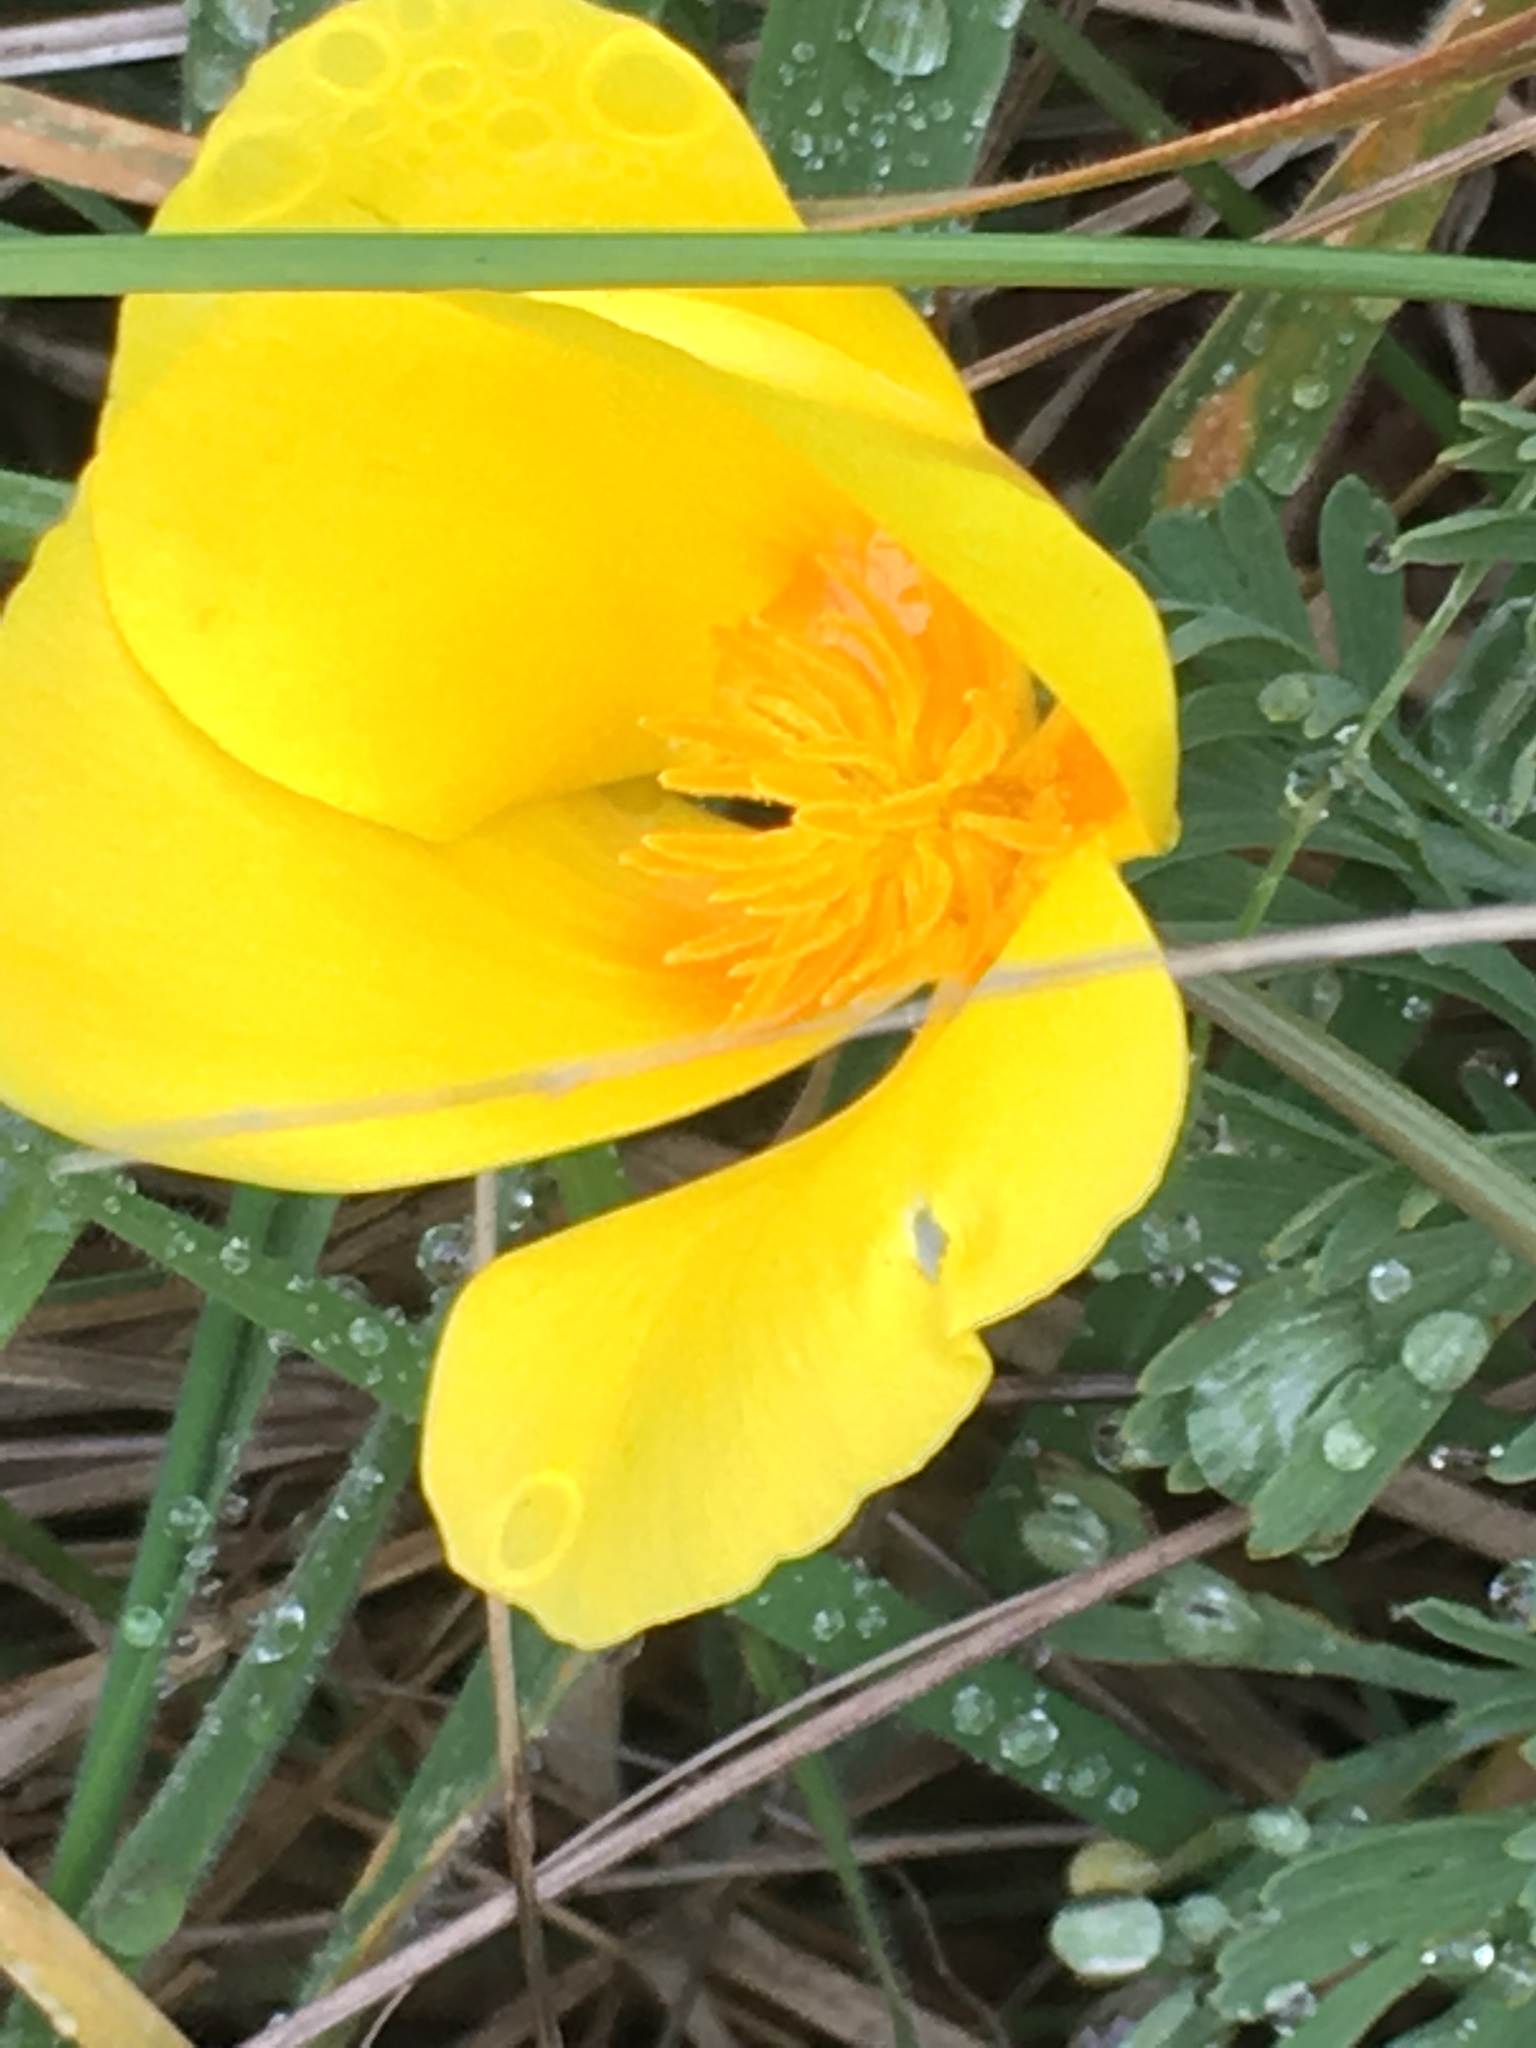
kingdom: Plantae
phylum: Tracheophyta
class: Magnoliopsida
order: Ranunculales
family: Papaveraceae
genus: Eschscholzia
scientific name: Eschscholzia californica
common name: California poppy
